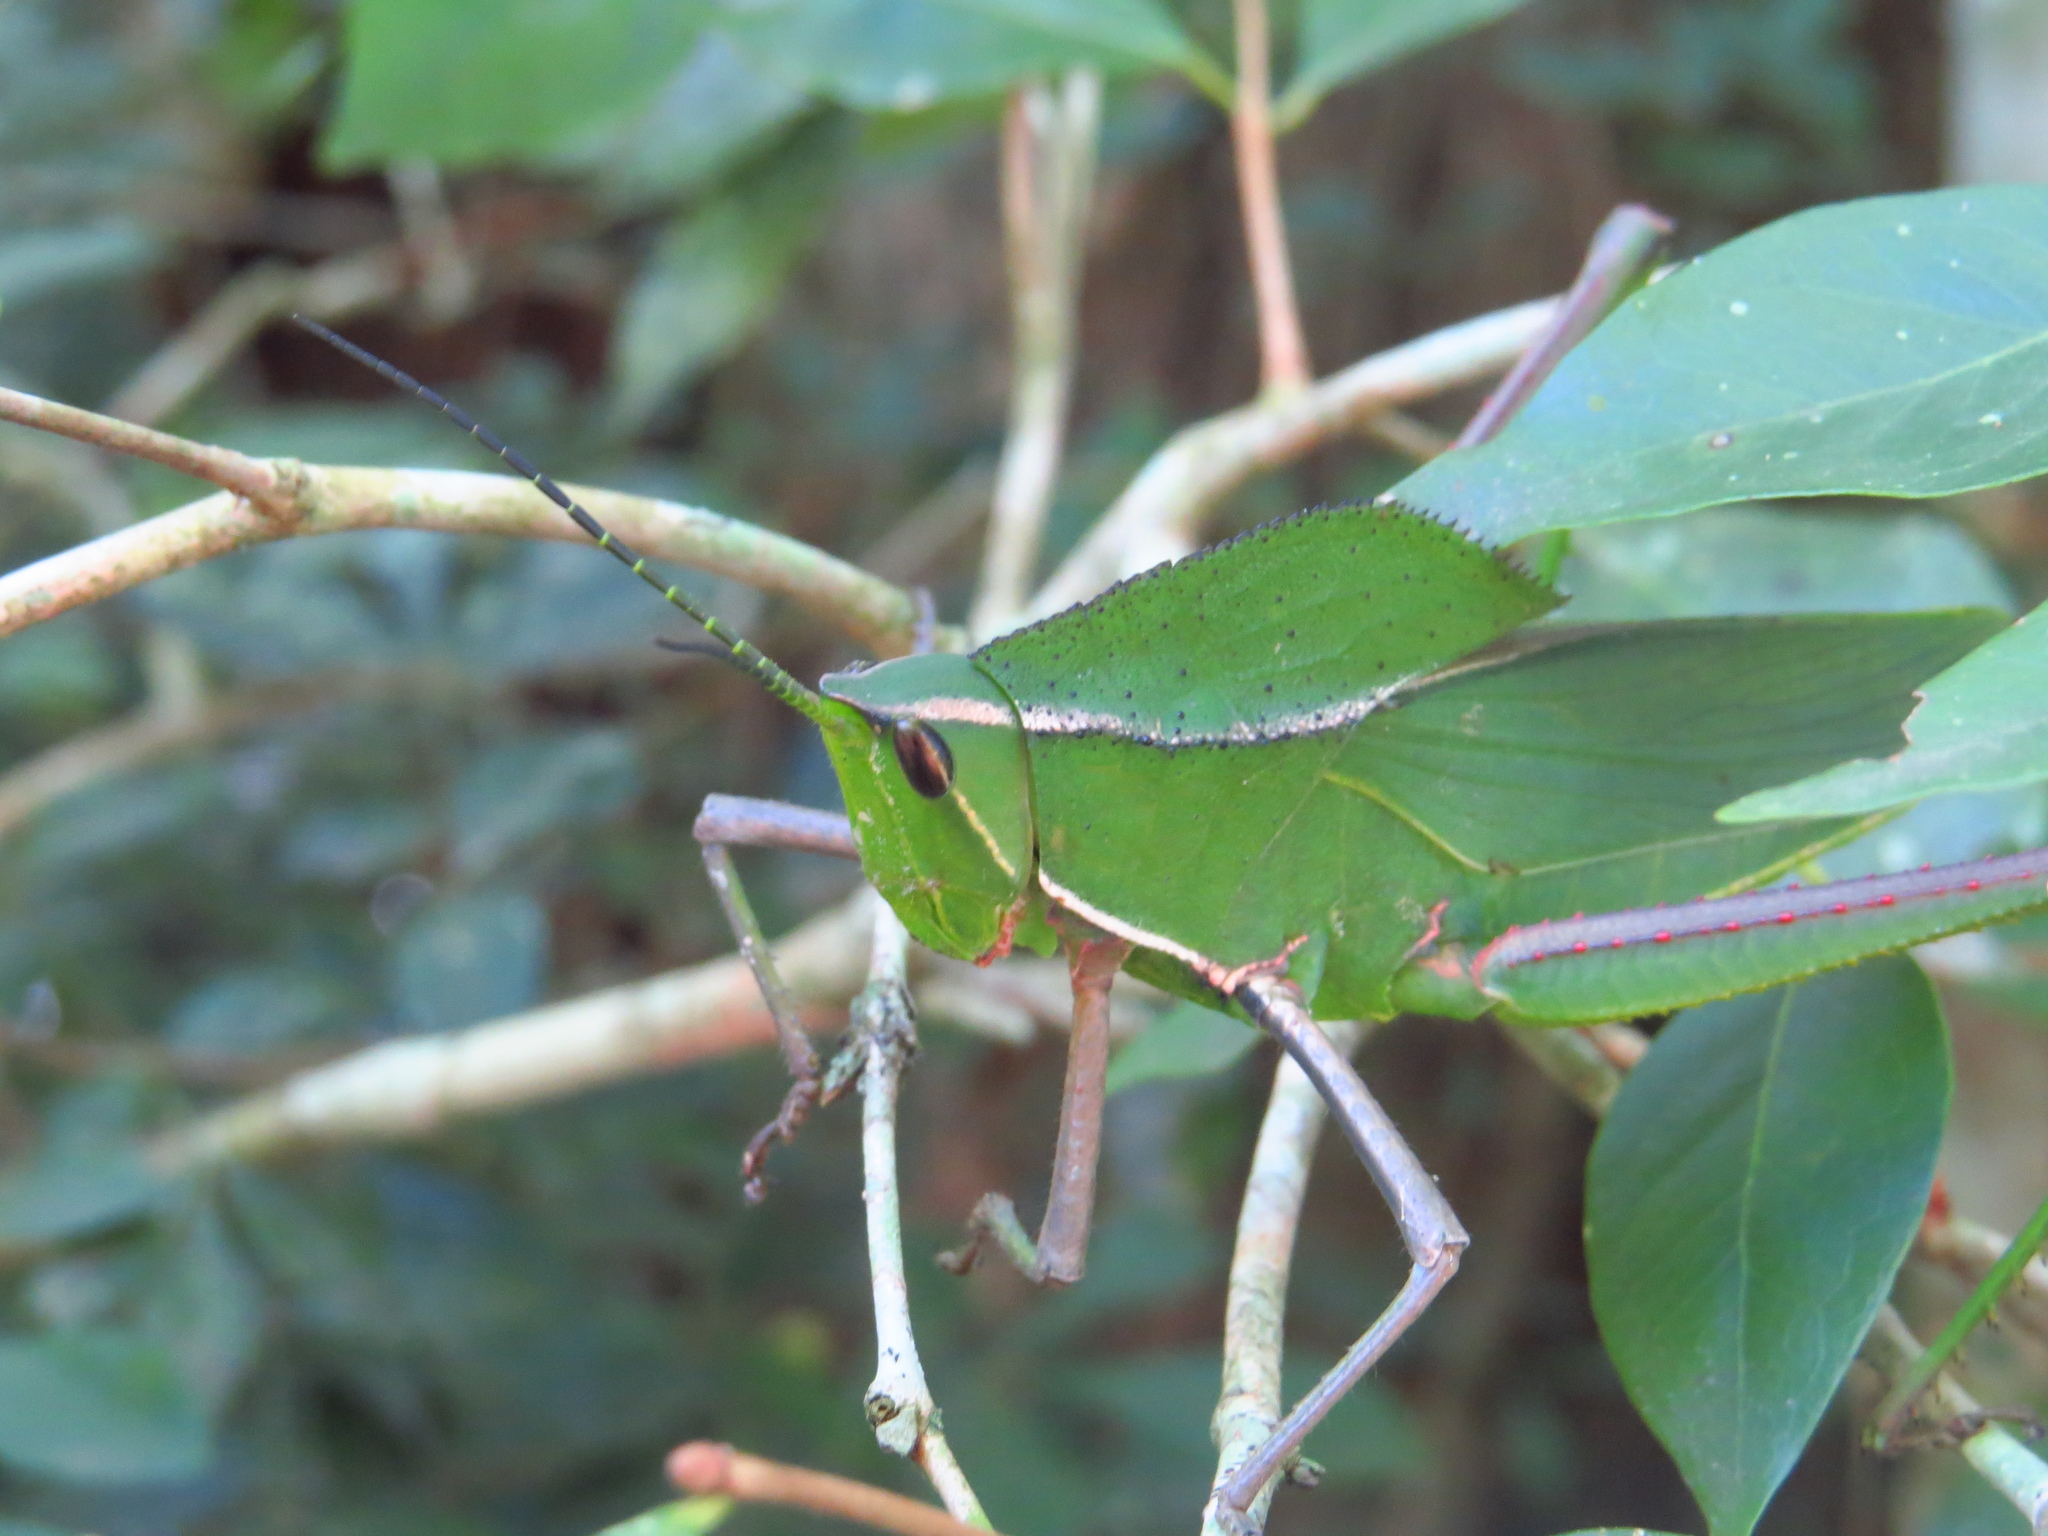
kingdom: Animalia
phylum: Arthropoda
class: Insecta
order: Orthoptera
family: Romaleidae
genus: Prionolopha
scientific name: Prionolopha serrata
